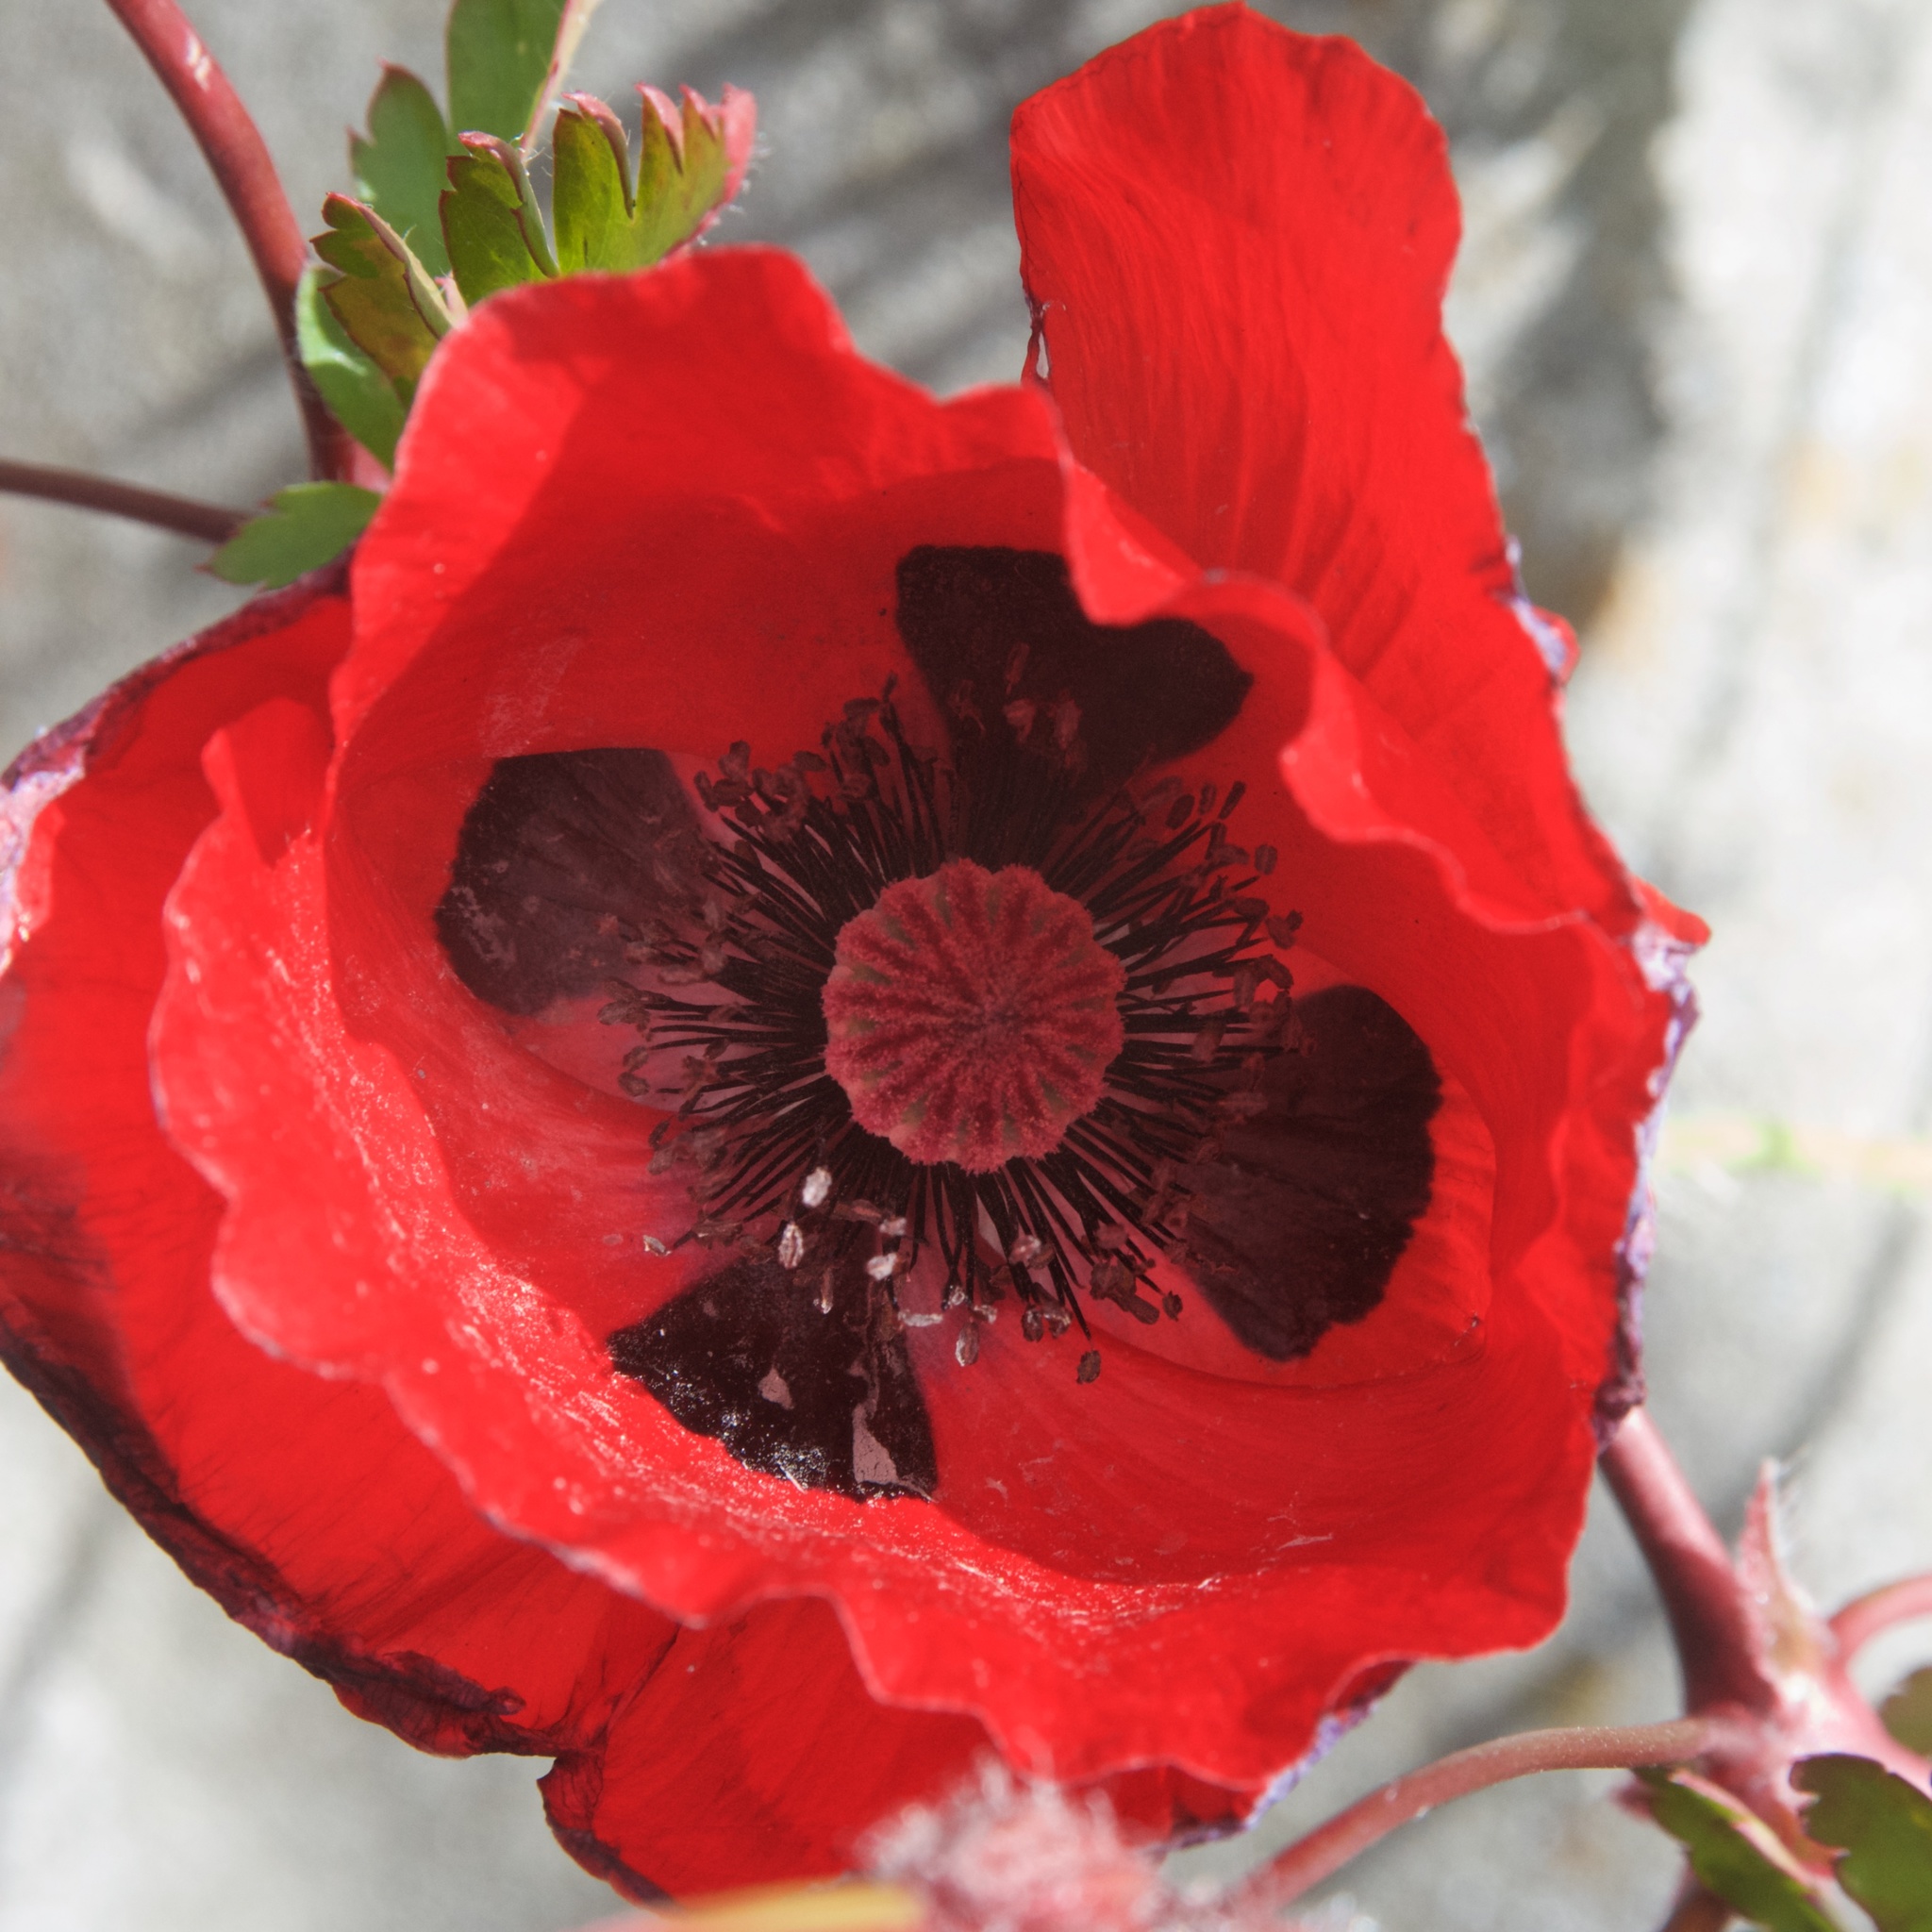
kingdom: Plantae
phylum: Tracheophyta
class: Magnoliopsida
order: Ranunculales
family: Papaveraceae
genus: Papaver
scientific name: Papaver rhoeas
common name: Corn poppy
